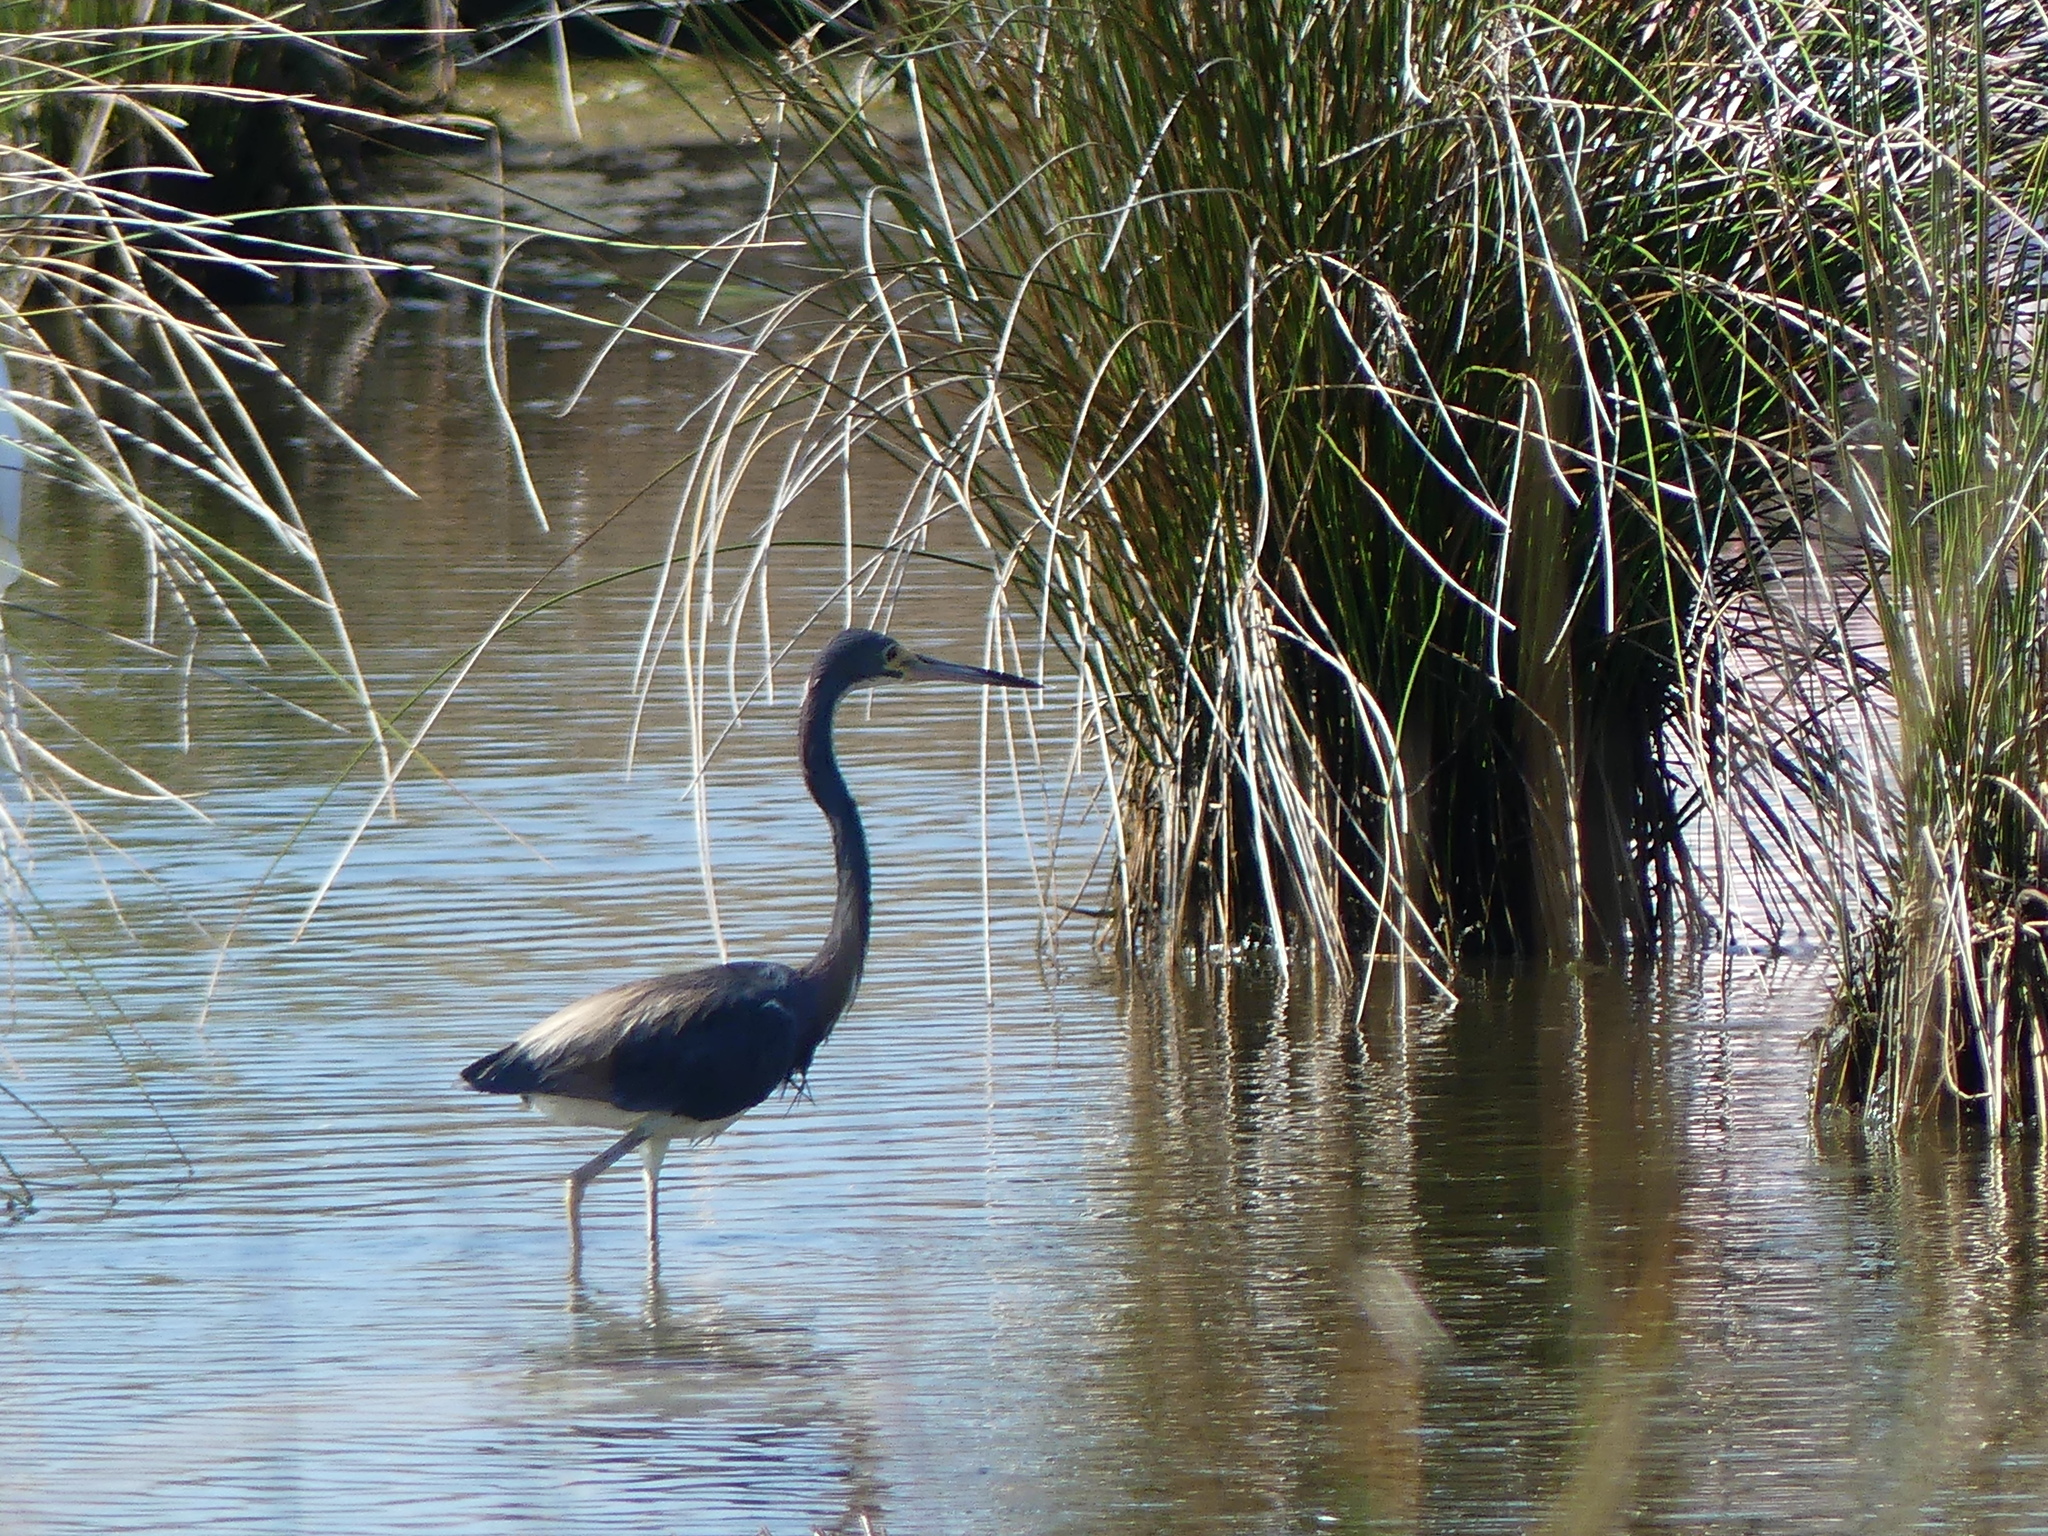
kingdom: Animalia
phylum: Chordata
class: Aves
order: Pelecaniformes
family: Ardeidae
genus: Egretta
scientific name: Egretta tricolor
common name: Tricolored heron
